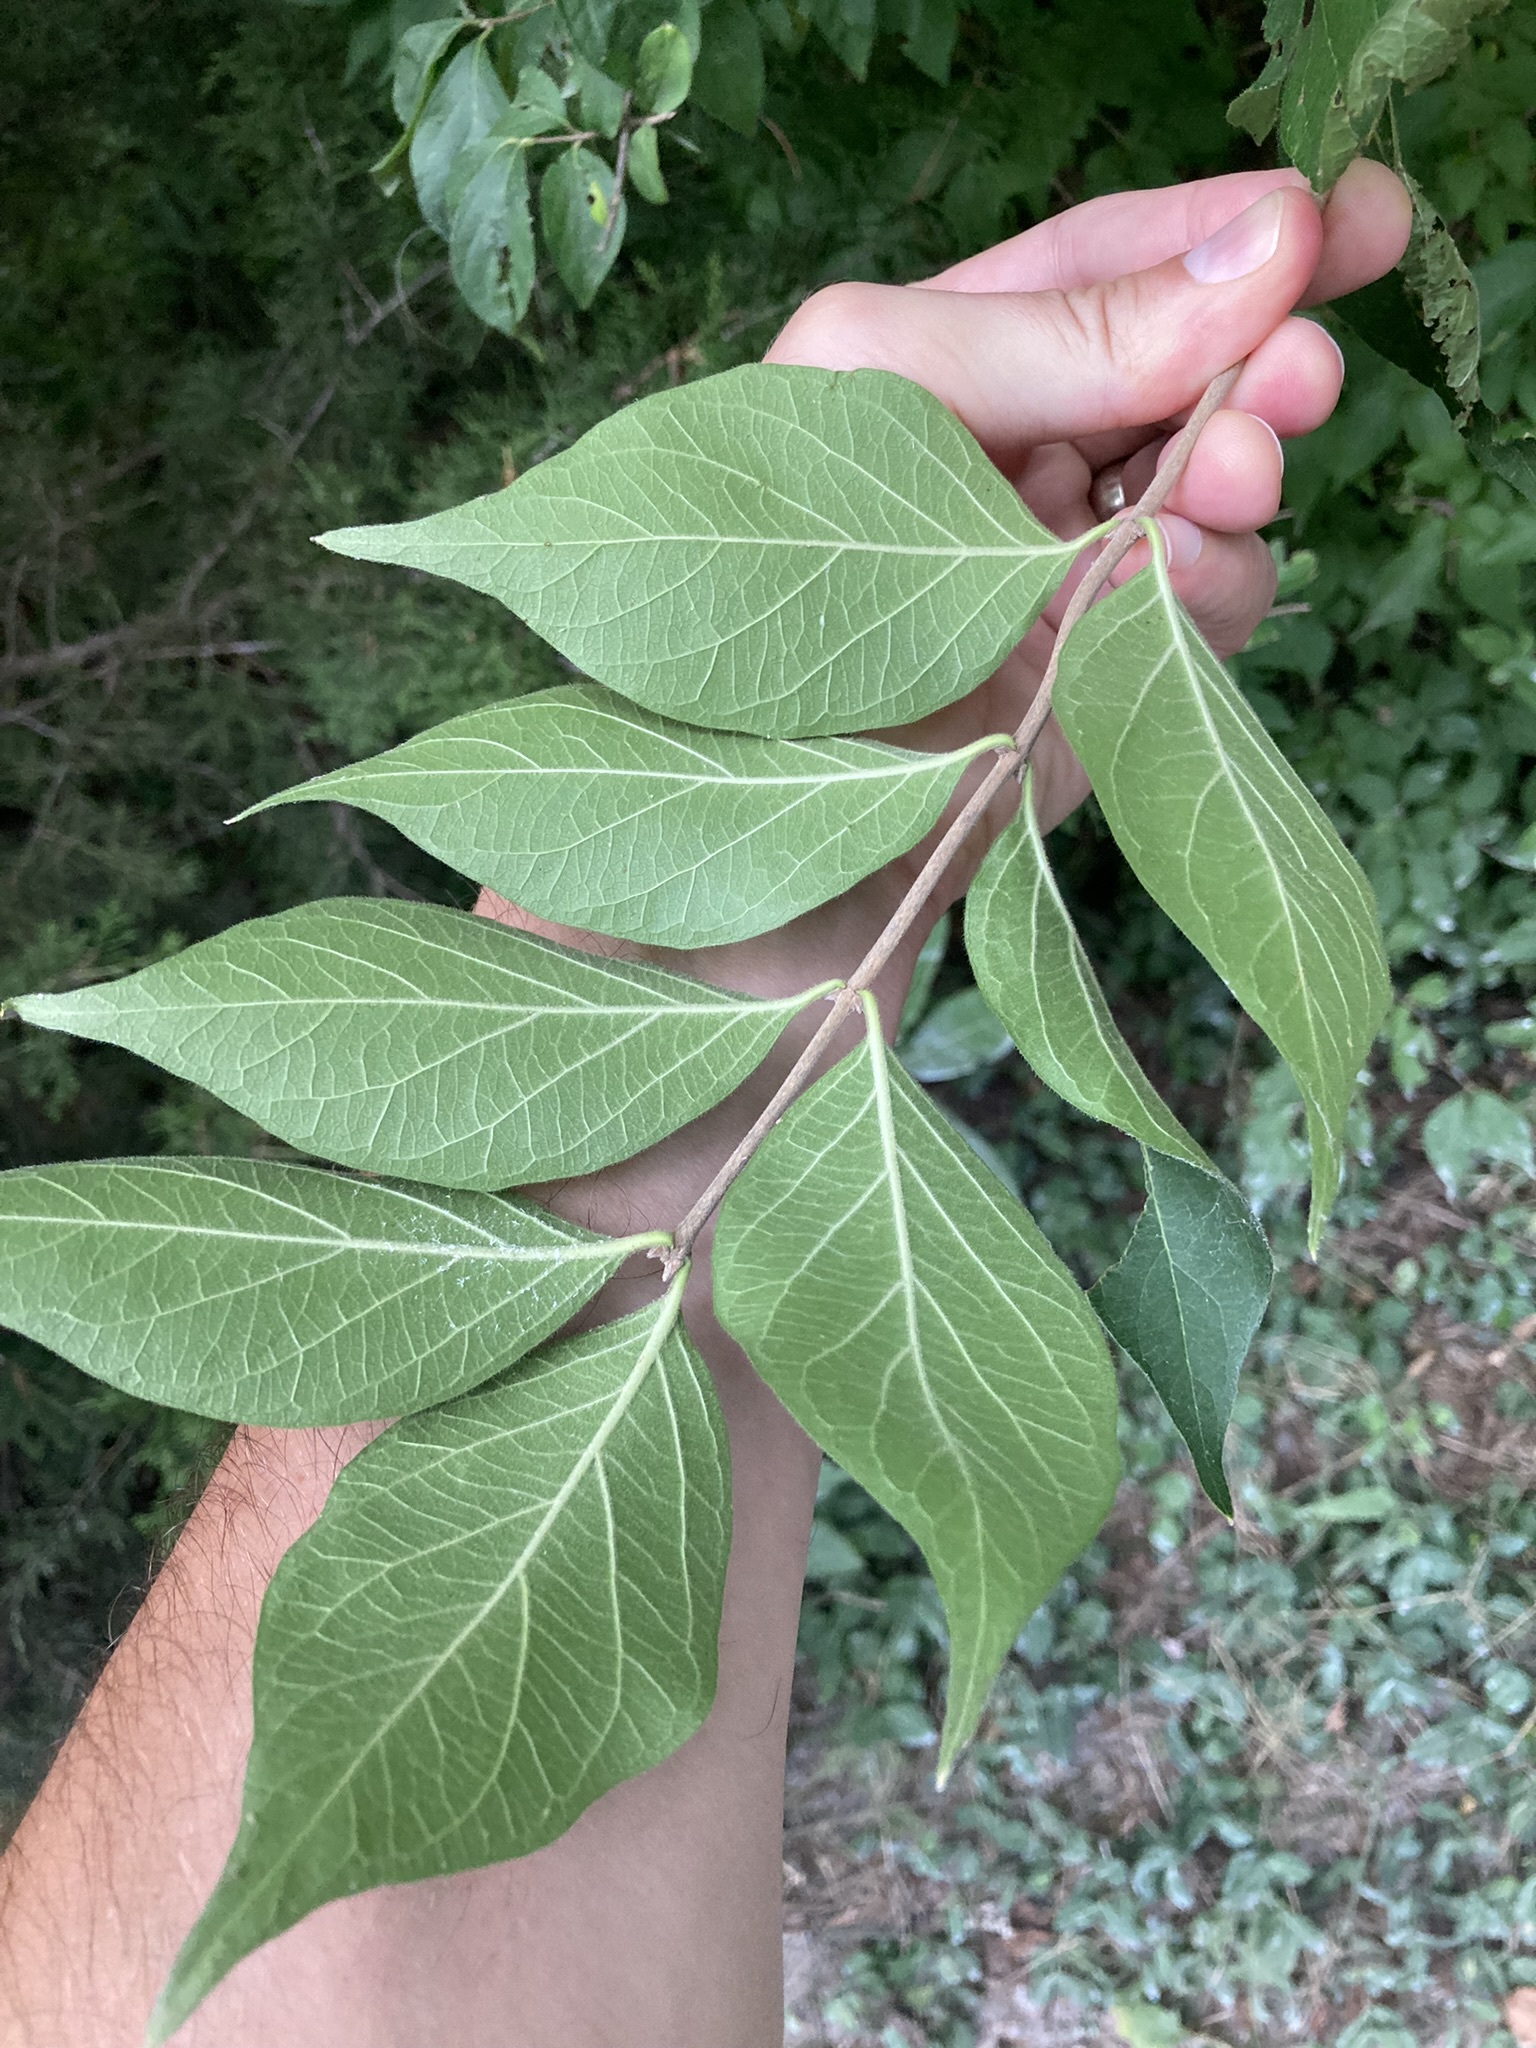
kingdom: Plantae
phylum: Tracheophyta
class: Magnoliopsida
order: Dipsacales
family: Caprifoliaceae
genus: Lonicera
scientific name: Lonicera maackii
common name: Amur honeysuckle
